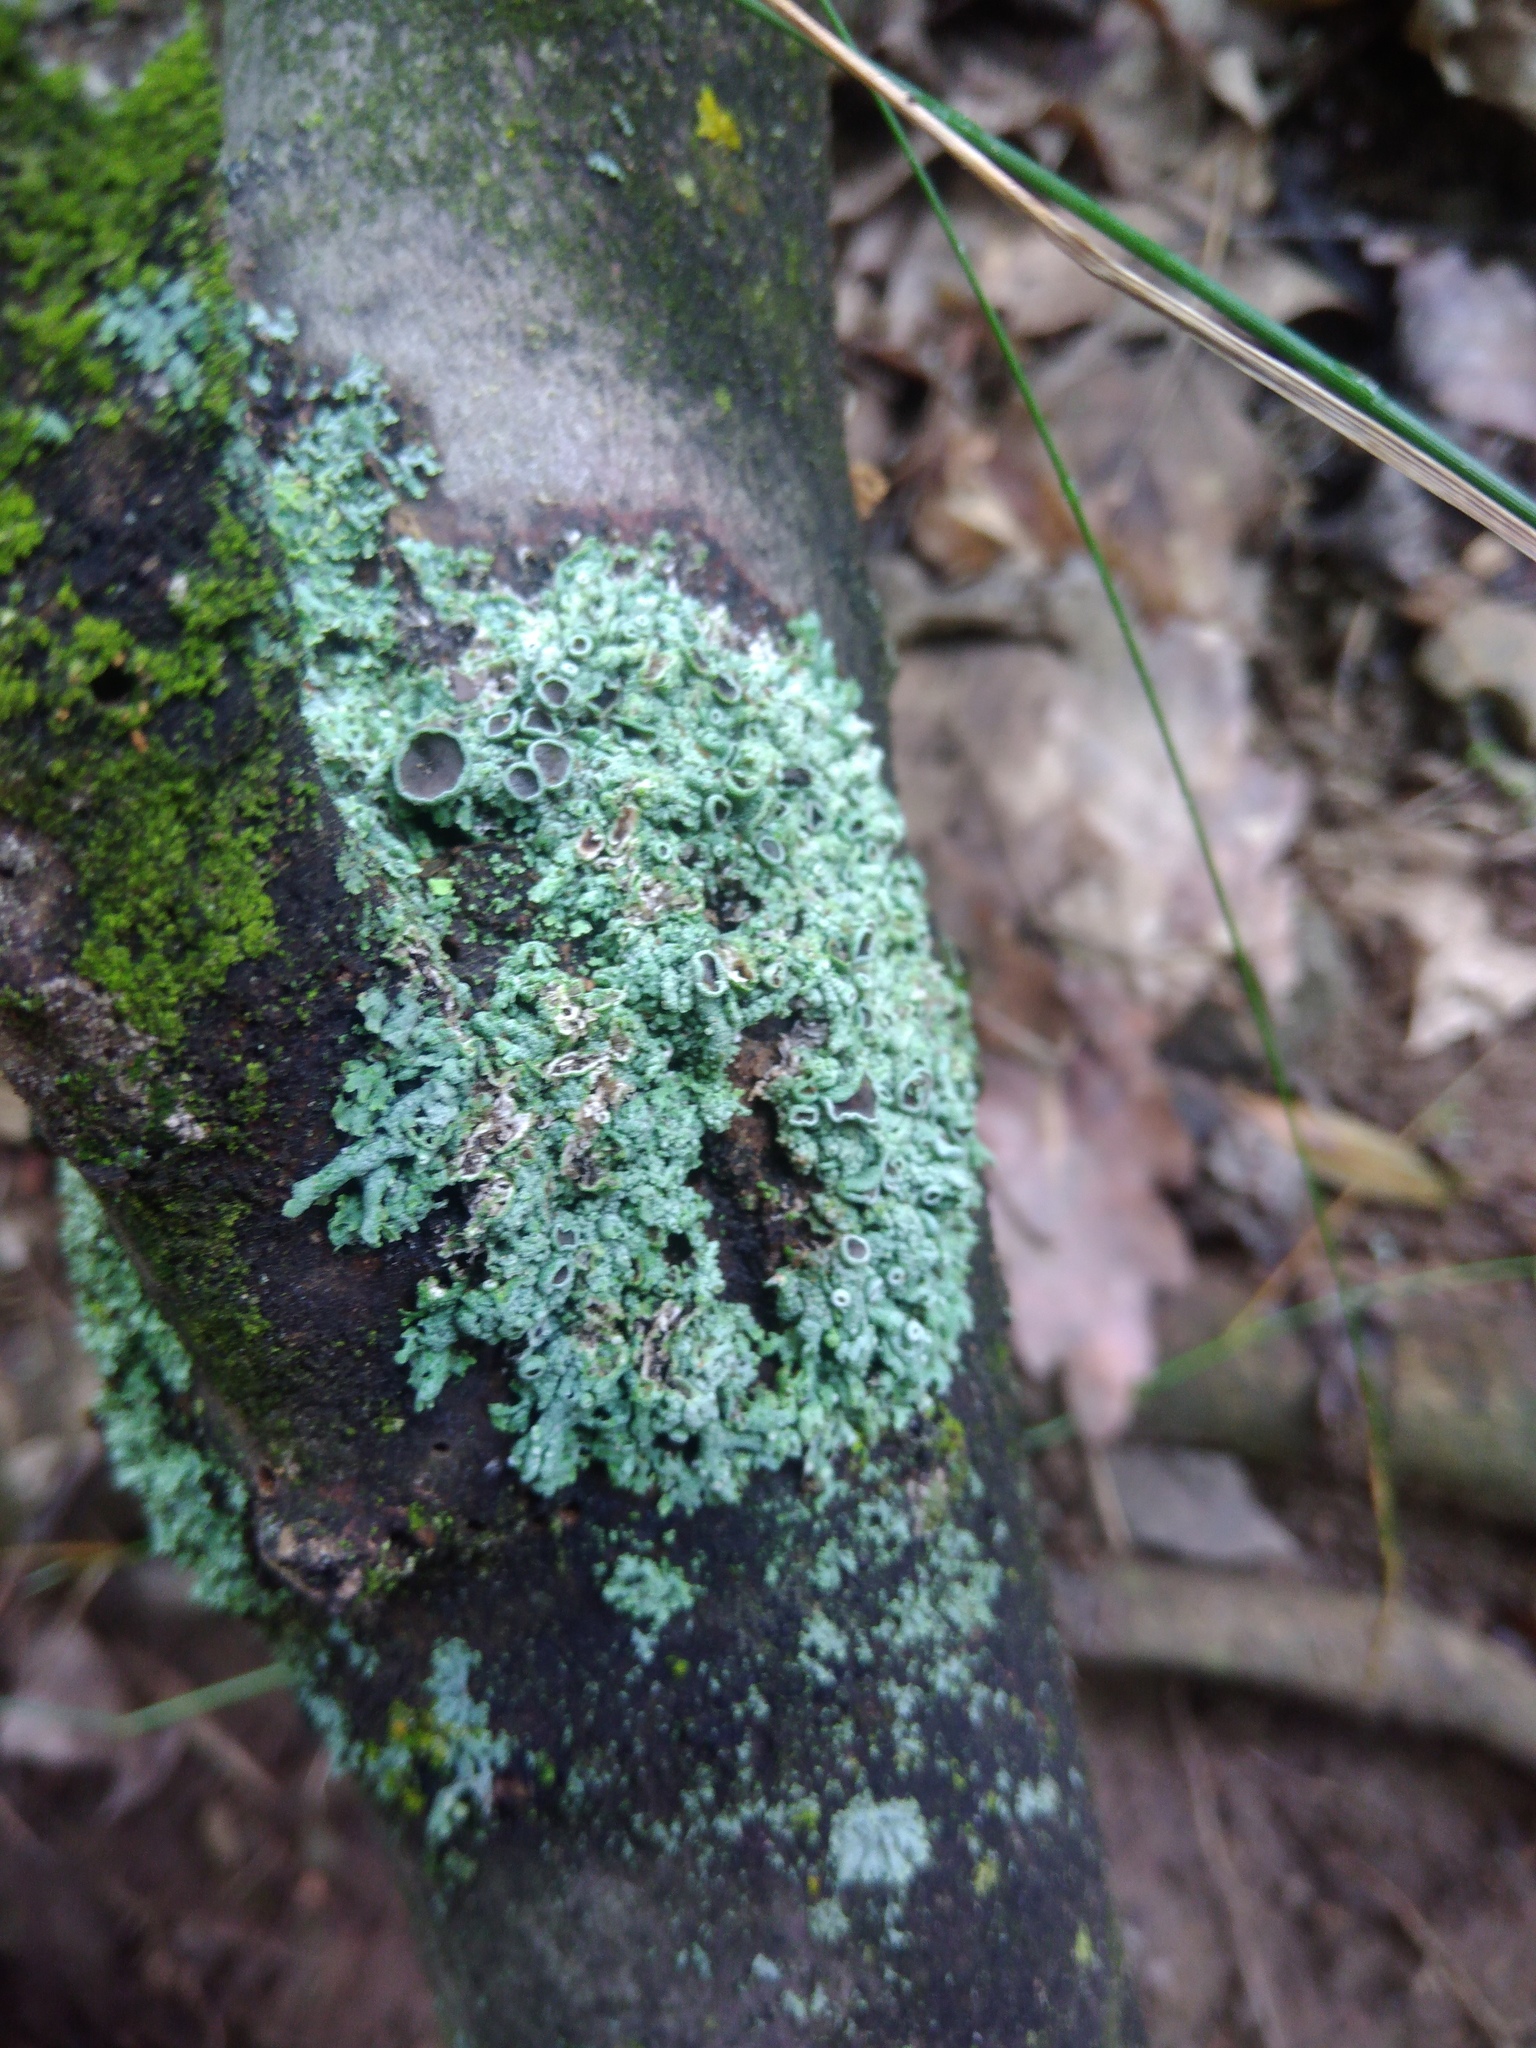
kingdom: Fungi
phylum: Ascomycota
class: Lecanoromycetes
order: Caliciales
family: Physciaceae
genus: Physcia
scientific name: Physcia stellaris
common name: Star rosette lichen
